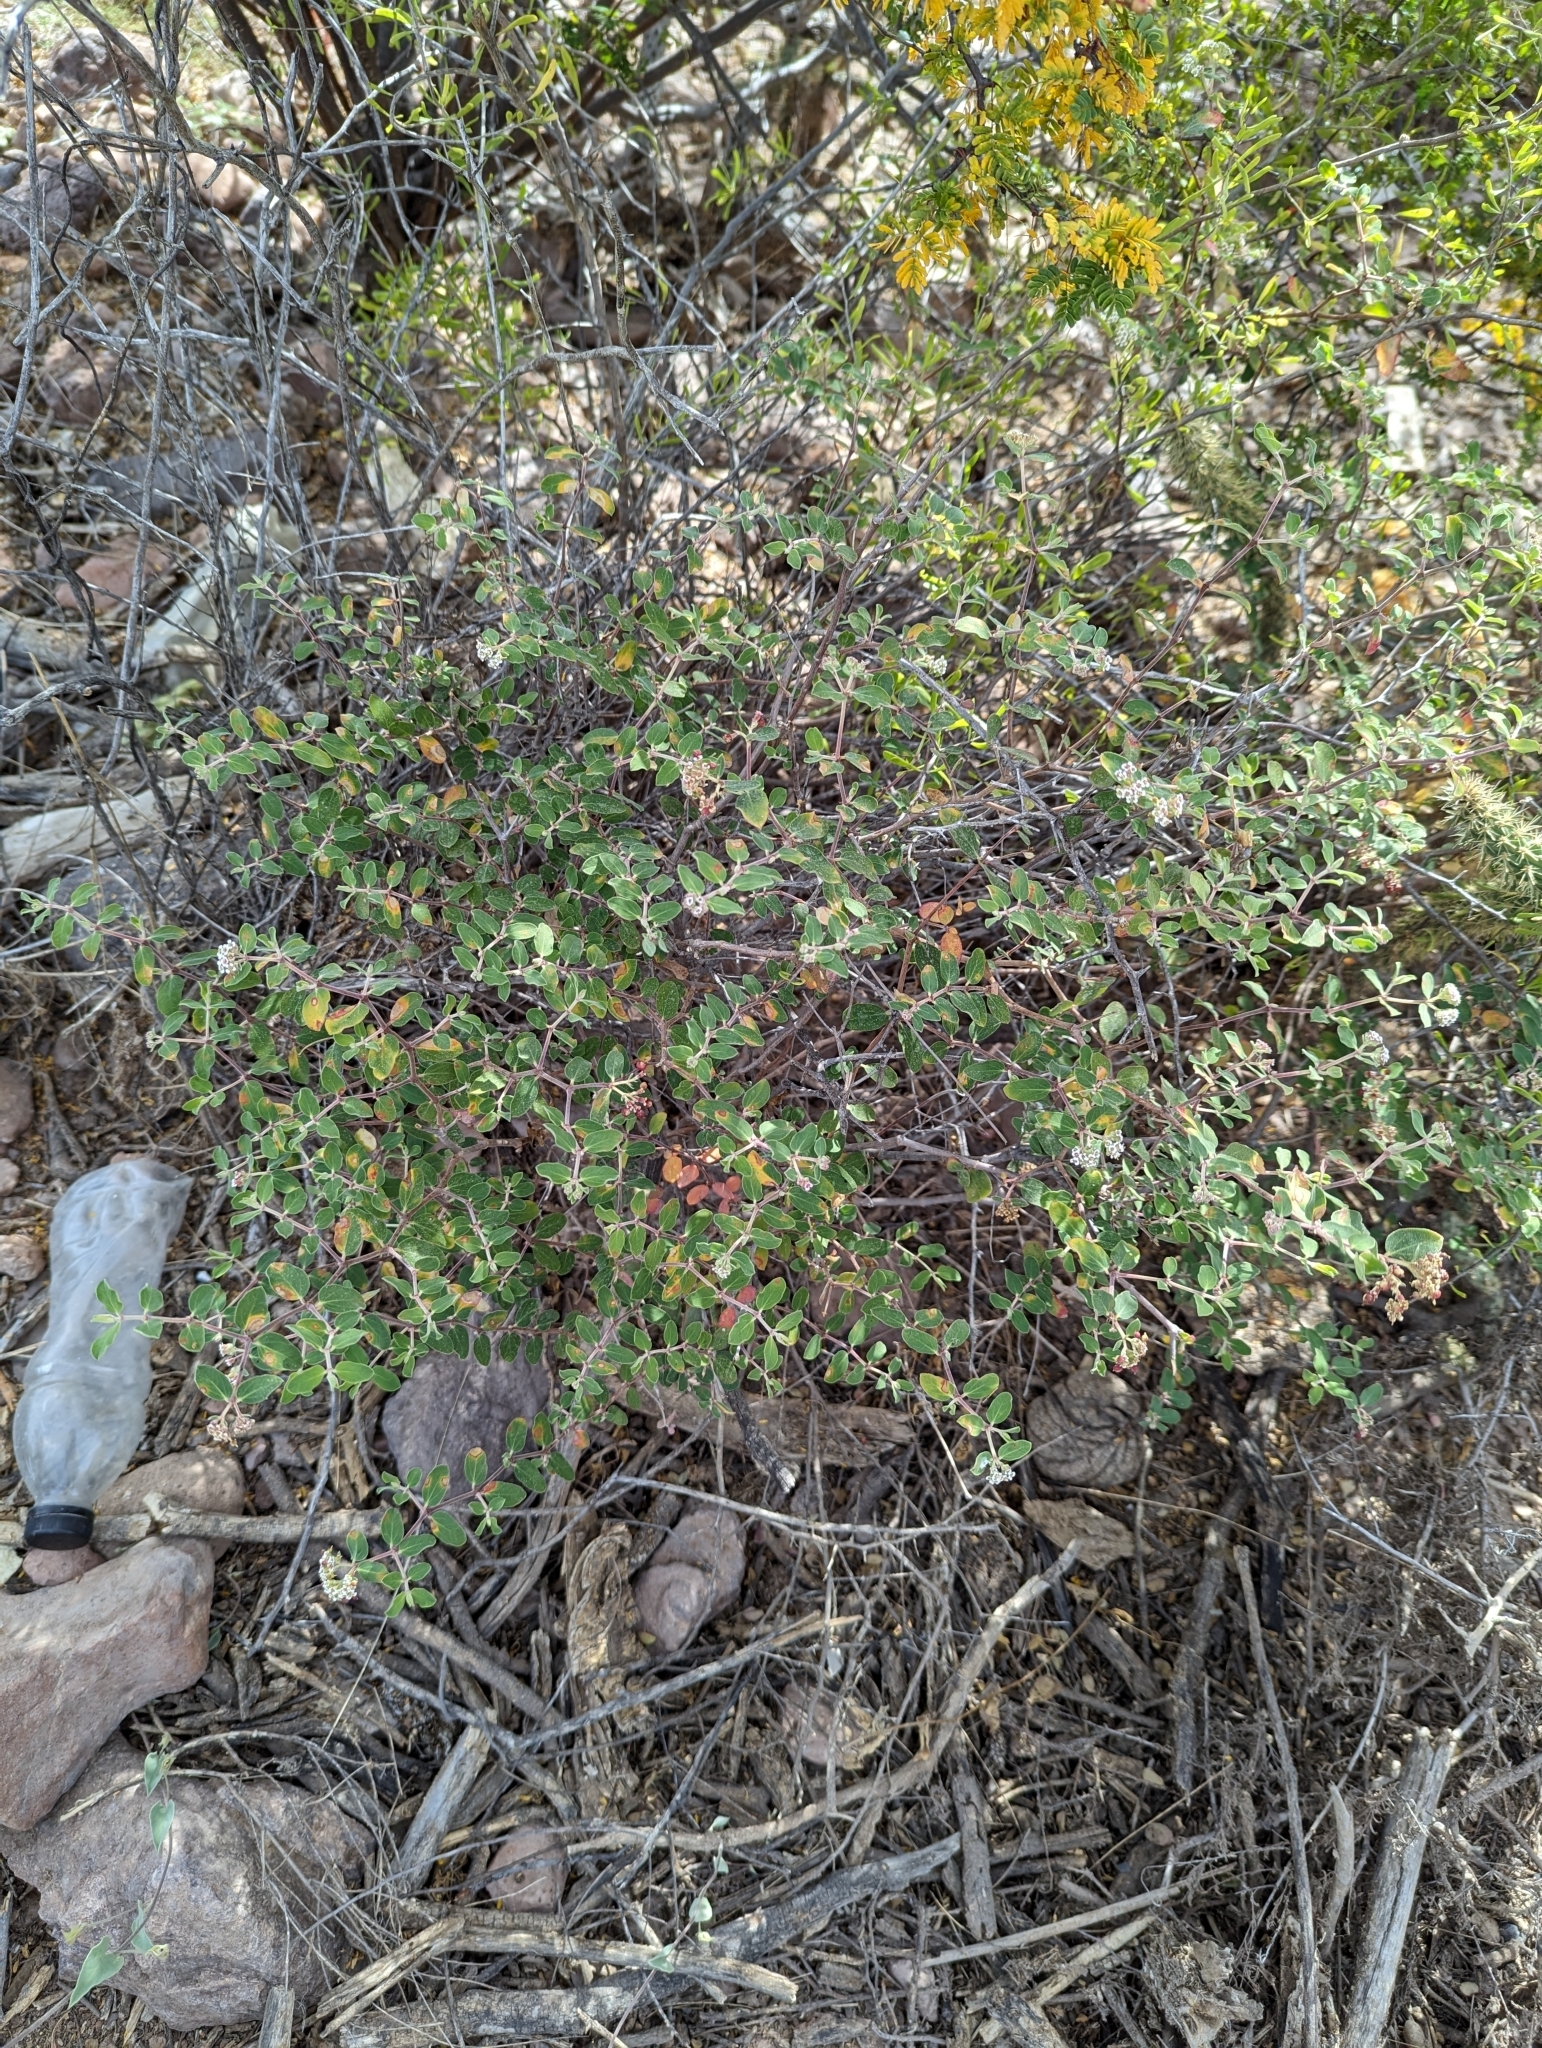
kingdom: Plantae
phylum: Tracheophyta
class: Magnoliopsida
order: Malpighiales
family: Euphorbiaceae
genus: Euphorbia
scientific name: Euphorbia tomentulosa
